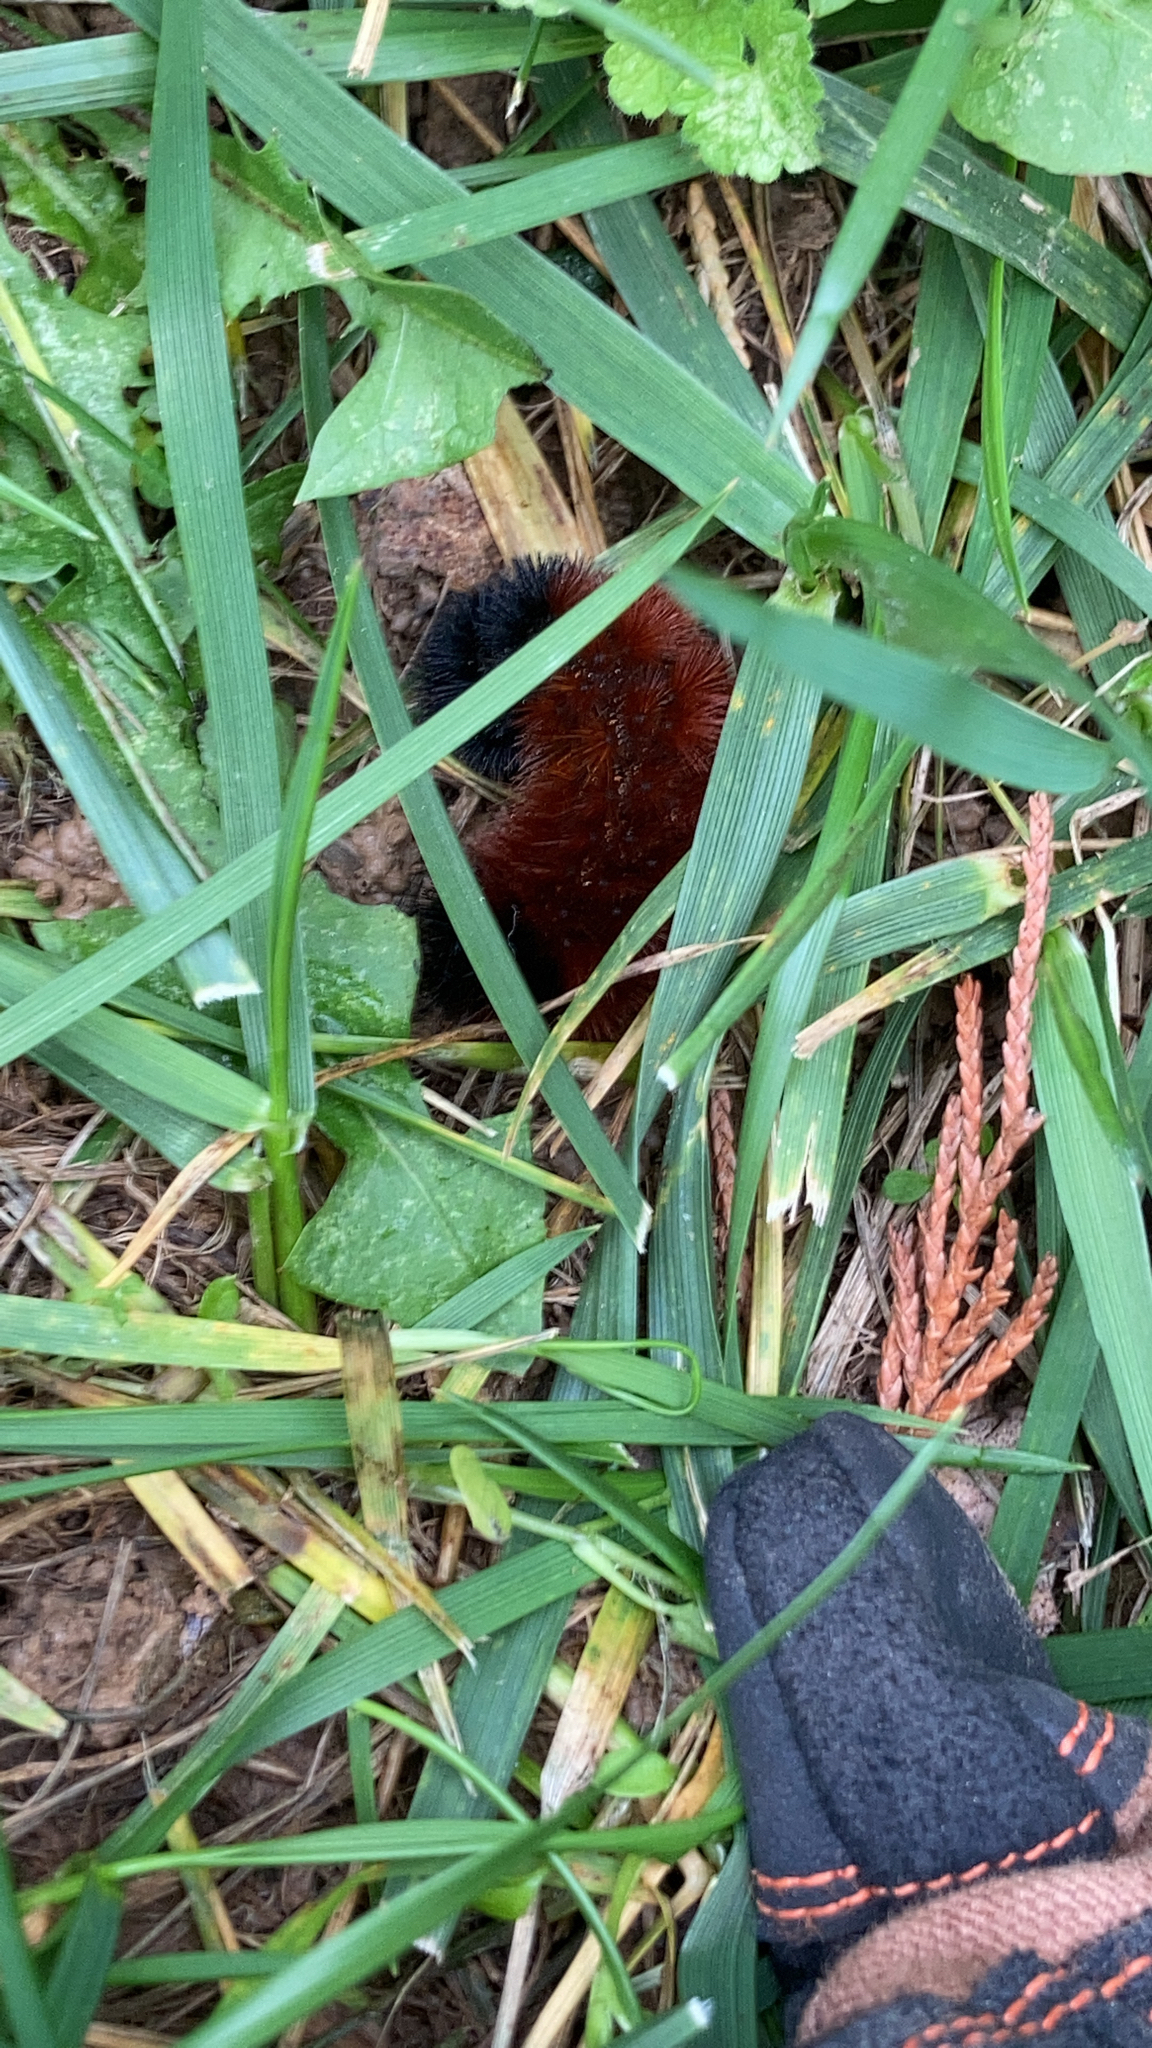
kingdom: Animalia
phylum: Arthropoda
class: Insecta
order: Lepidoptera
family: Erebidae
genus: Pyrrharctia
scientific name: Pyrrharctia isabella
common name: Isabella tiger moth
